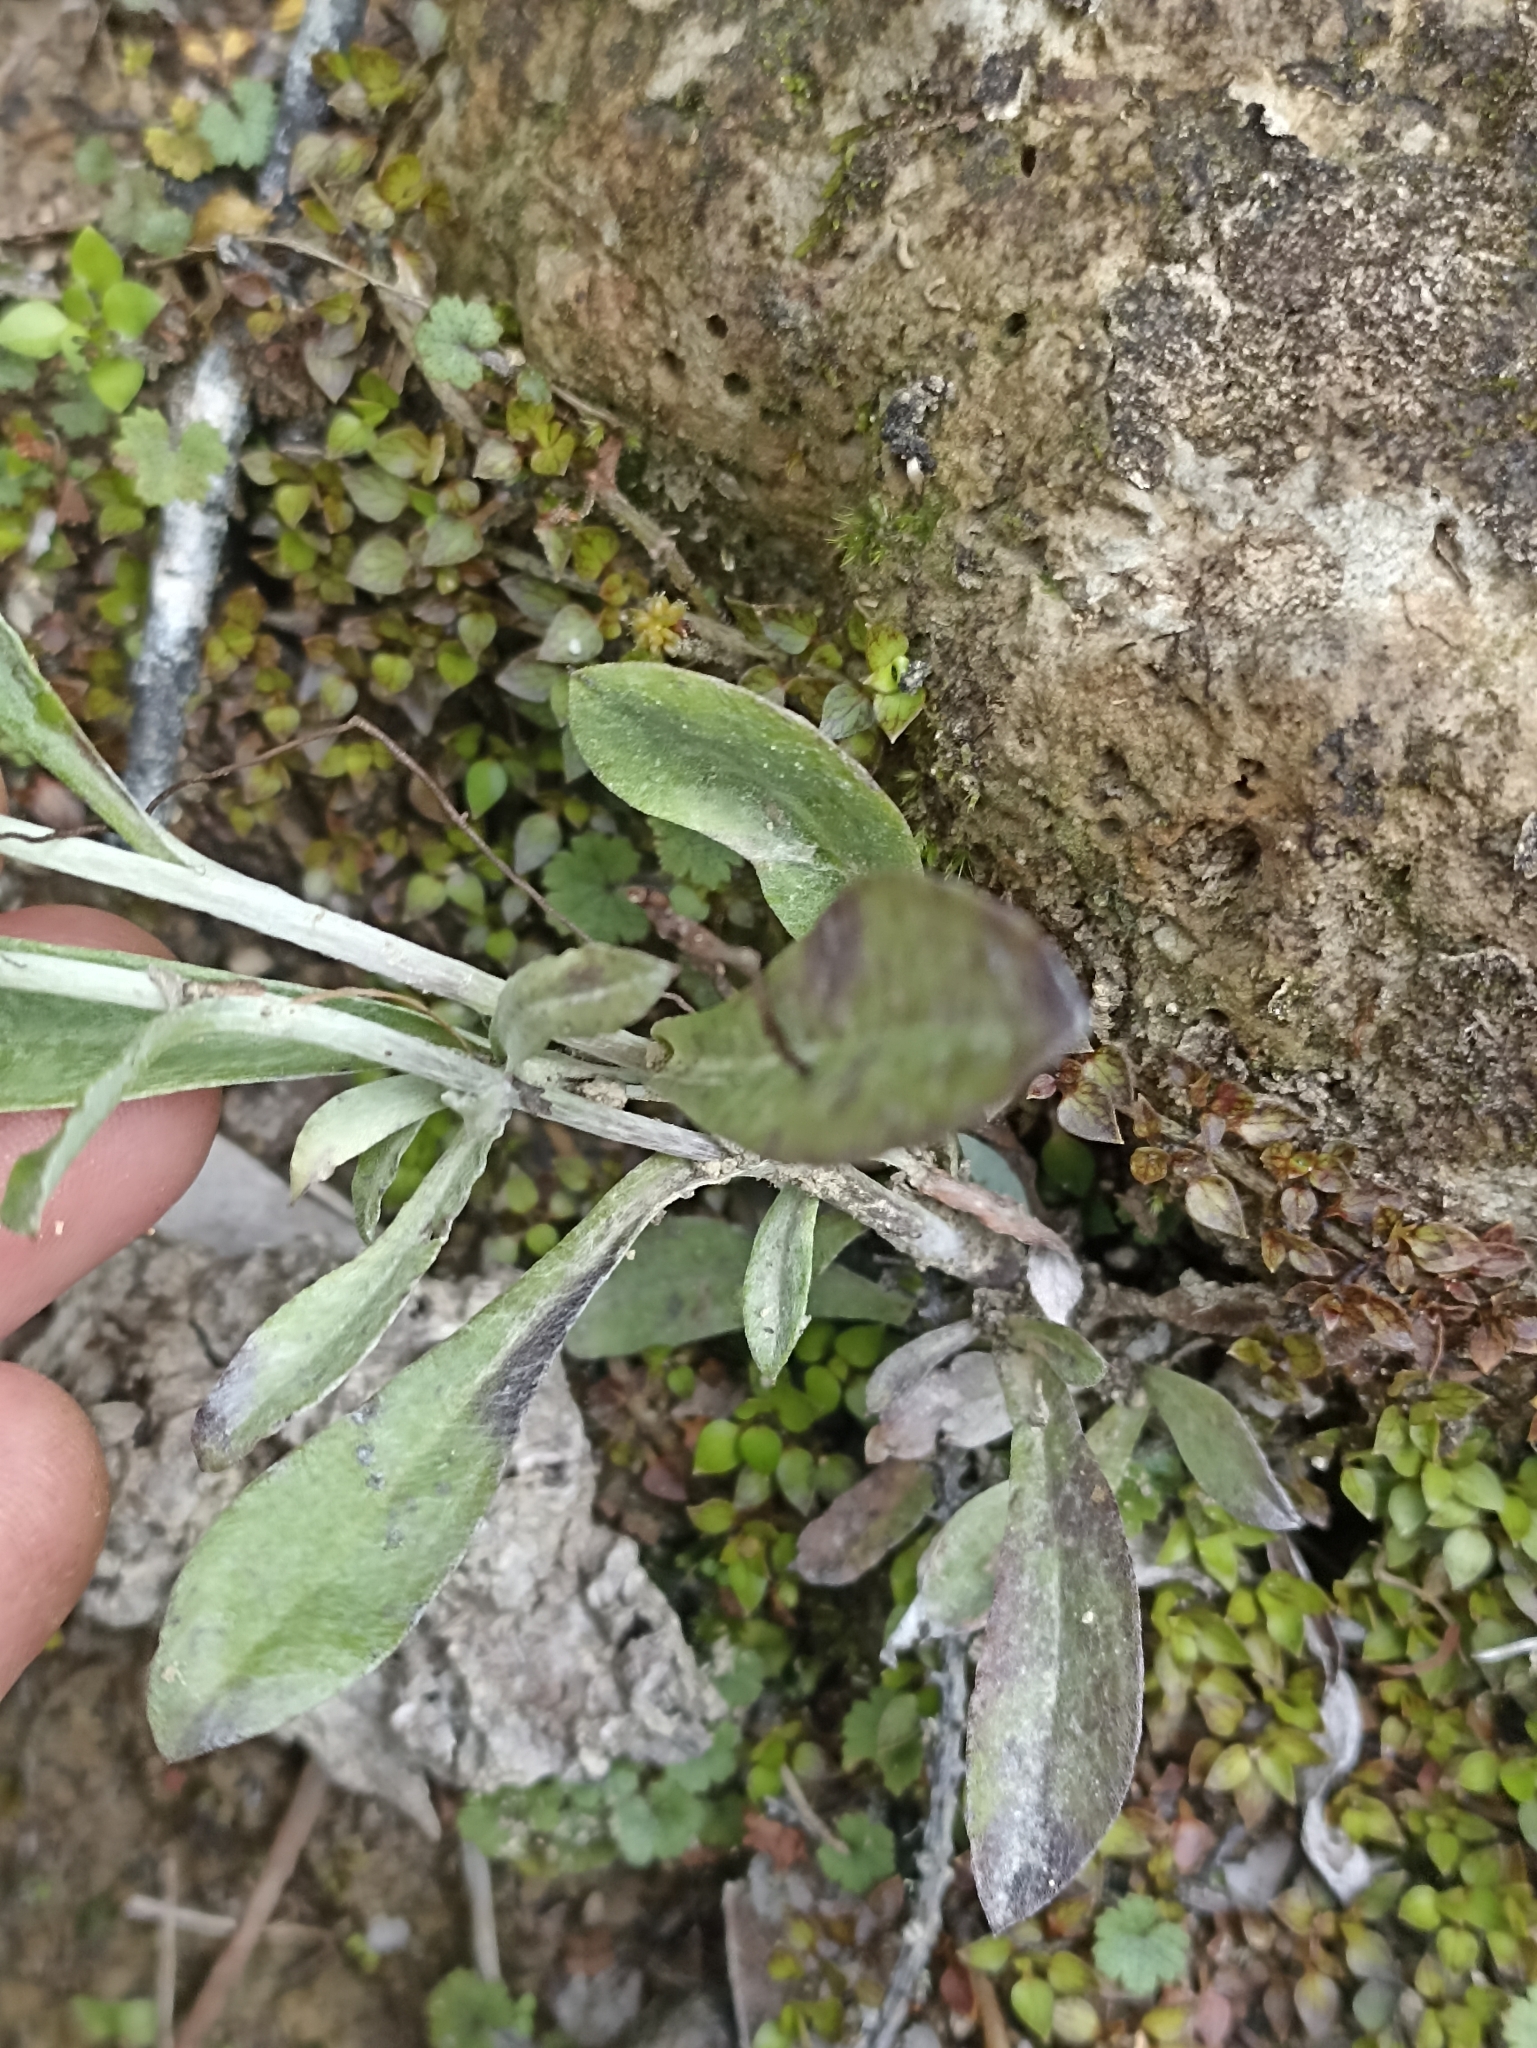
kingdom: Plantae
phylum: Tracheophyta
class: Magnoliopsida
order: Asterales
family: Asteraceae
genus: Euchiton
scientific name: Euchiton sphaericus
